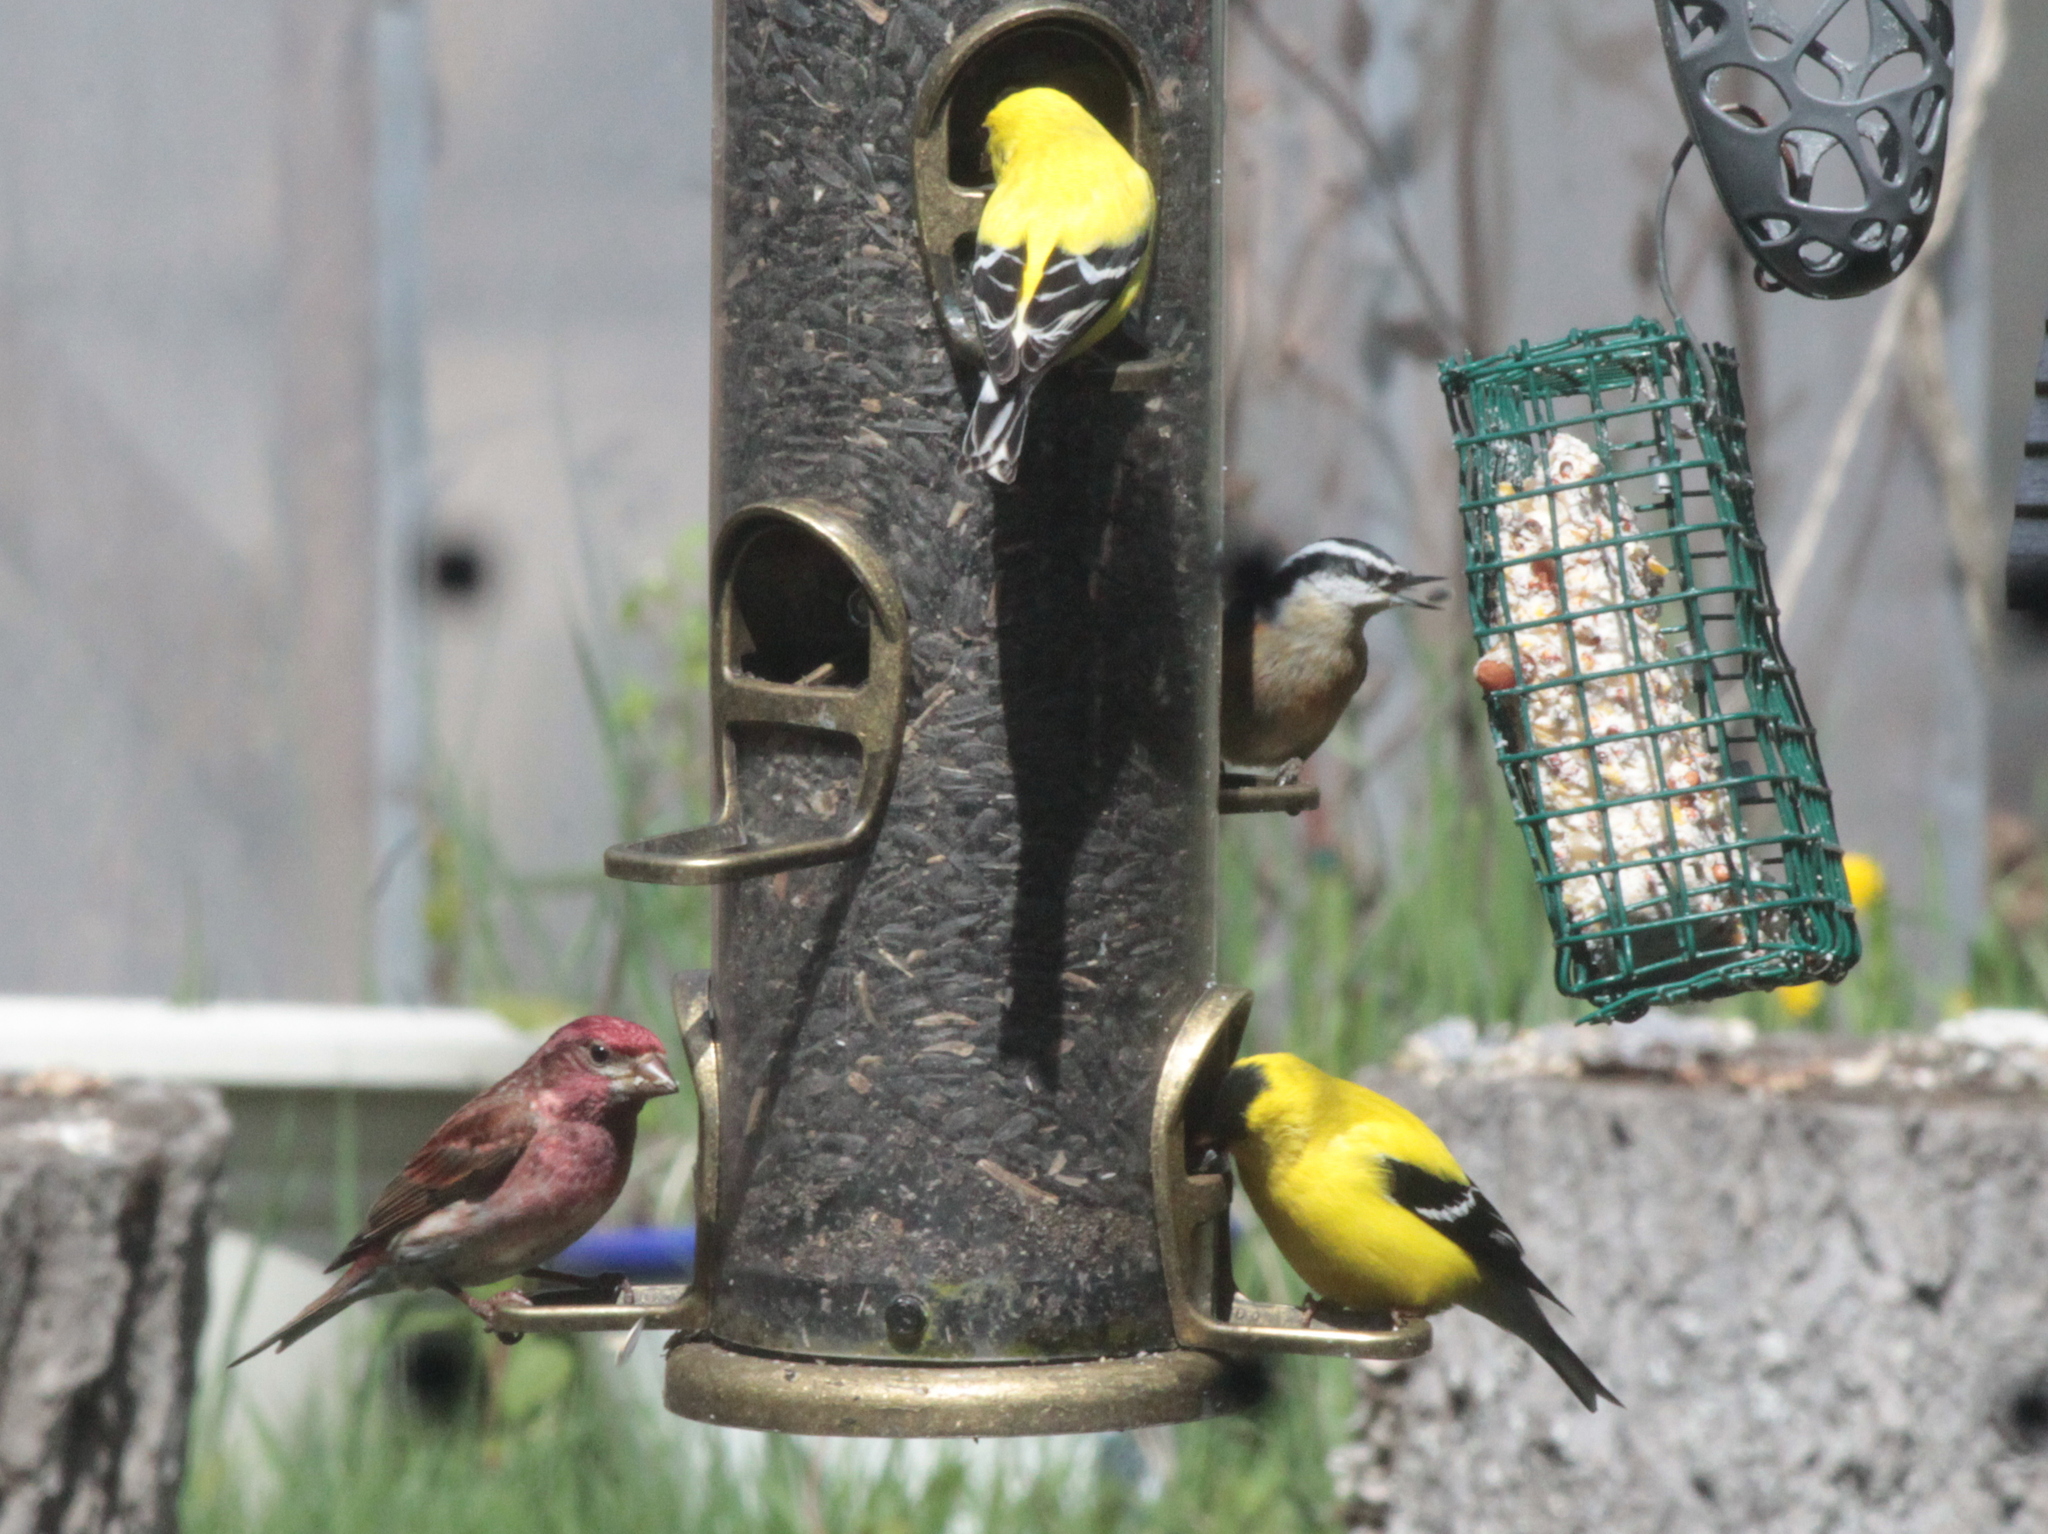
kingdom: Animalia
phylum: Chordata
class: Aves
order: Passeriformes
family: Fringillidae
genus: Haemorhous
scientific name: Haemorhous purpureus
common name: Purple finch
